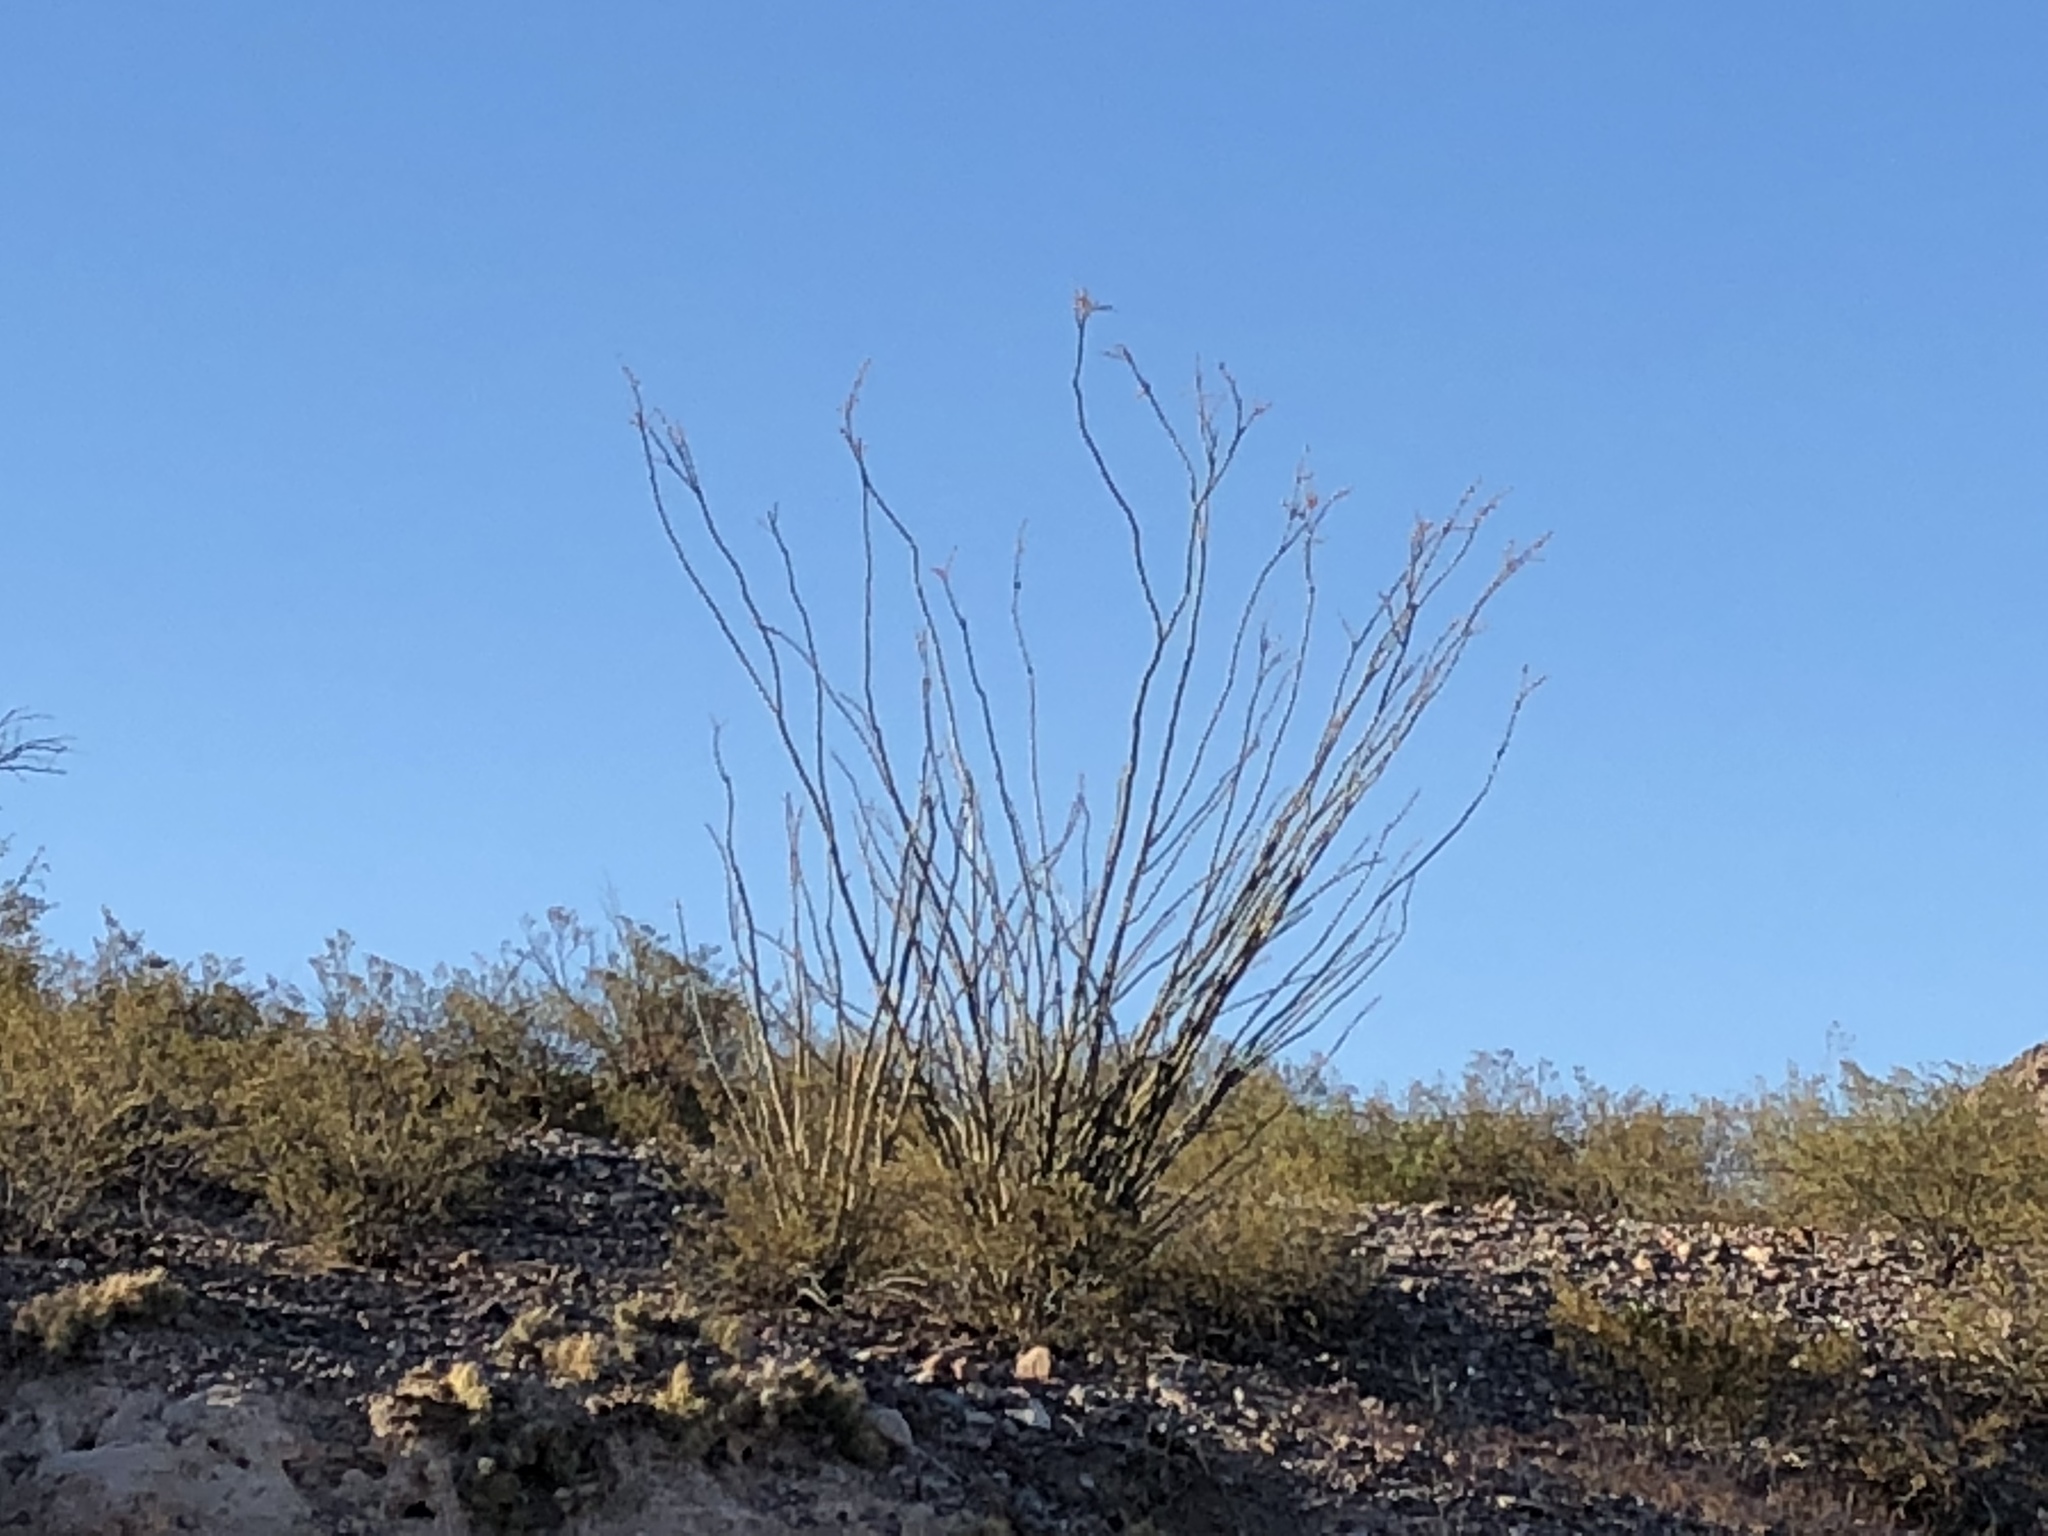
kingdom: Plantae
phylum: Tracheophyta
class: Magnoliopsida
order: Ericales
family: Fouquieriaceae
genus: Fouquieria
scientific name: Fouquieria splendens
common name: Vine-cactus
